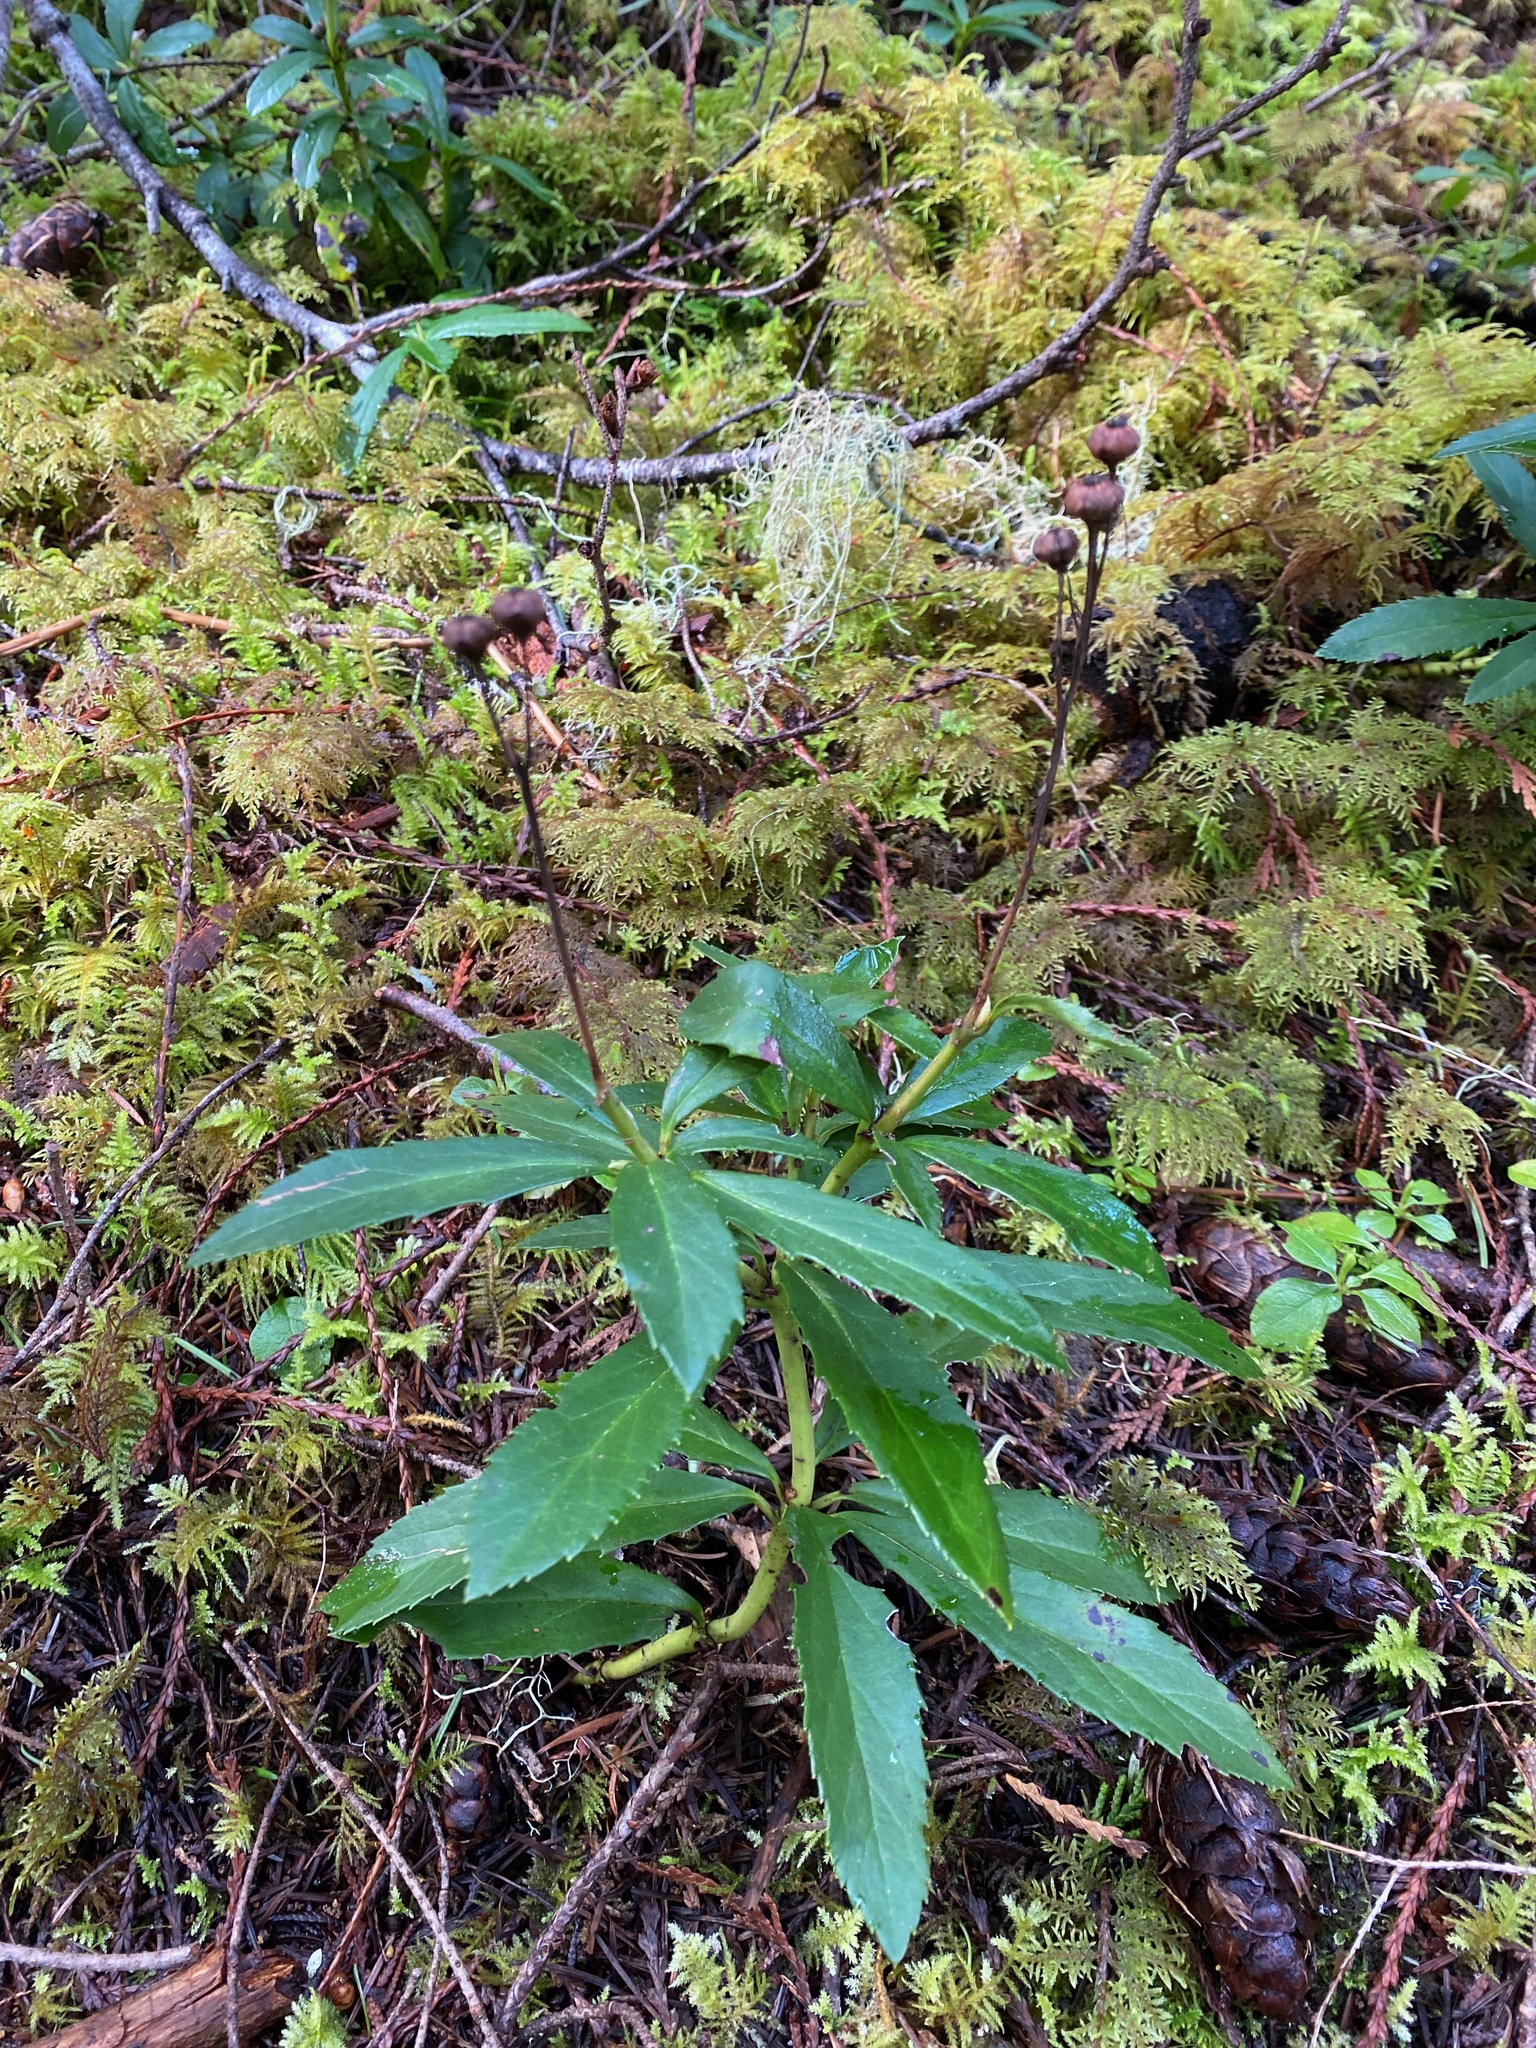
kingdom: Plantae
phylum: Tracheophyta
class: Magnoliopsida
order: Ericales
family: Ericaceae
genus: Chimaphila
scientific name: Chimaphila umbellata
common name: Pipsissewa
